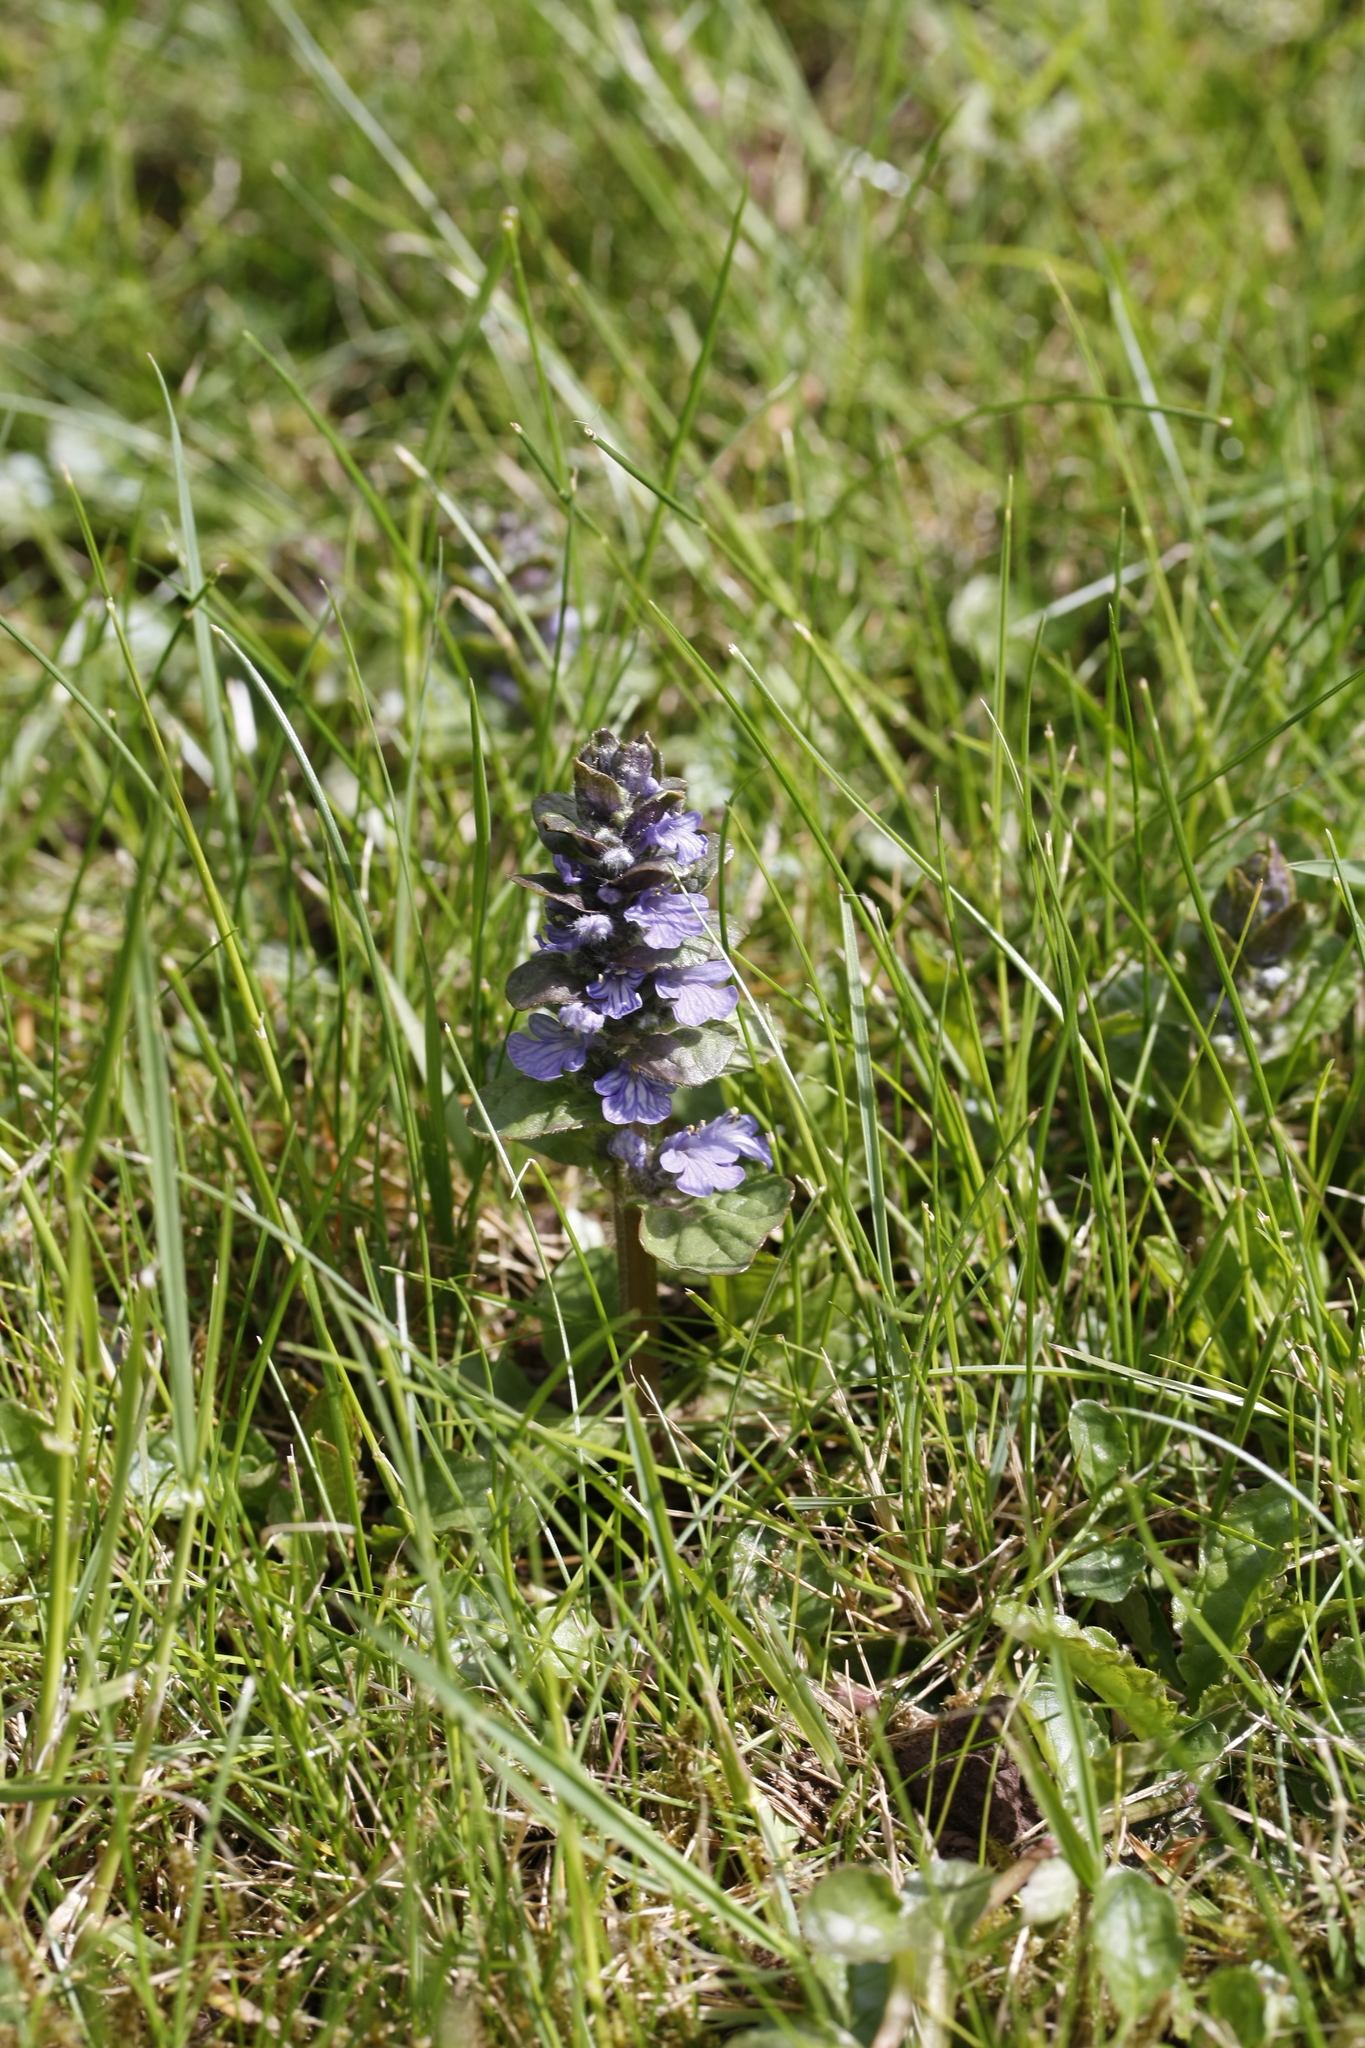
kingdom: Plantae
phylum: Tracheophyta
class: Magnoliopsida
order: Lamiales
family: Lamiaceae
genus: Ajuga
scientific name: Ajuga reptans
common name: Bugle
